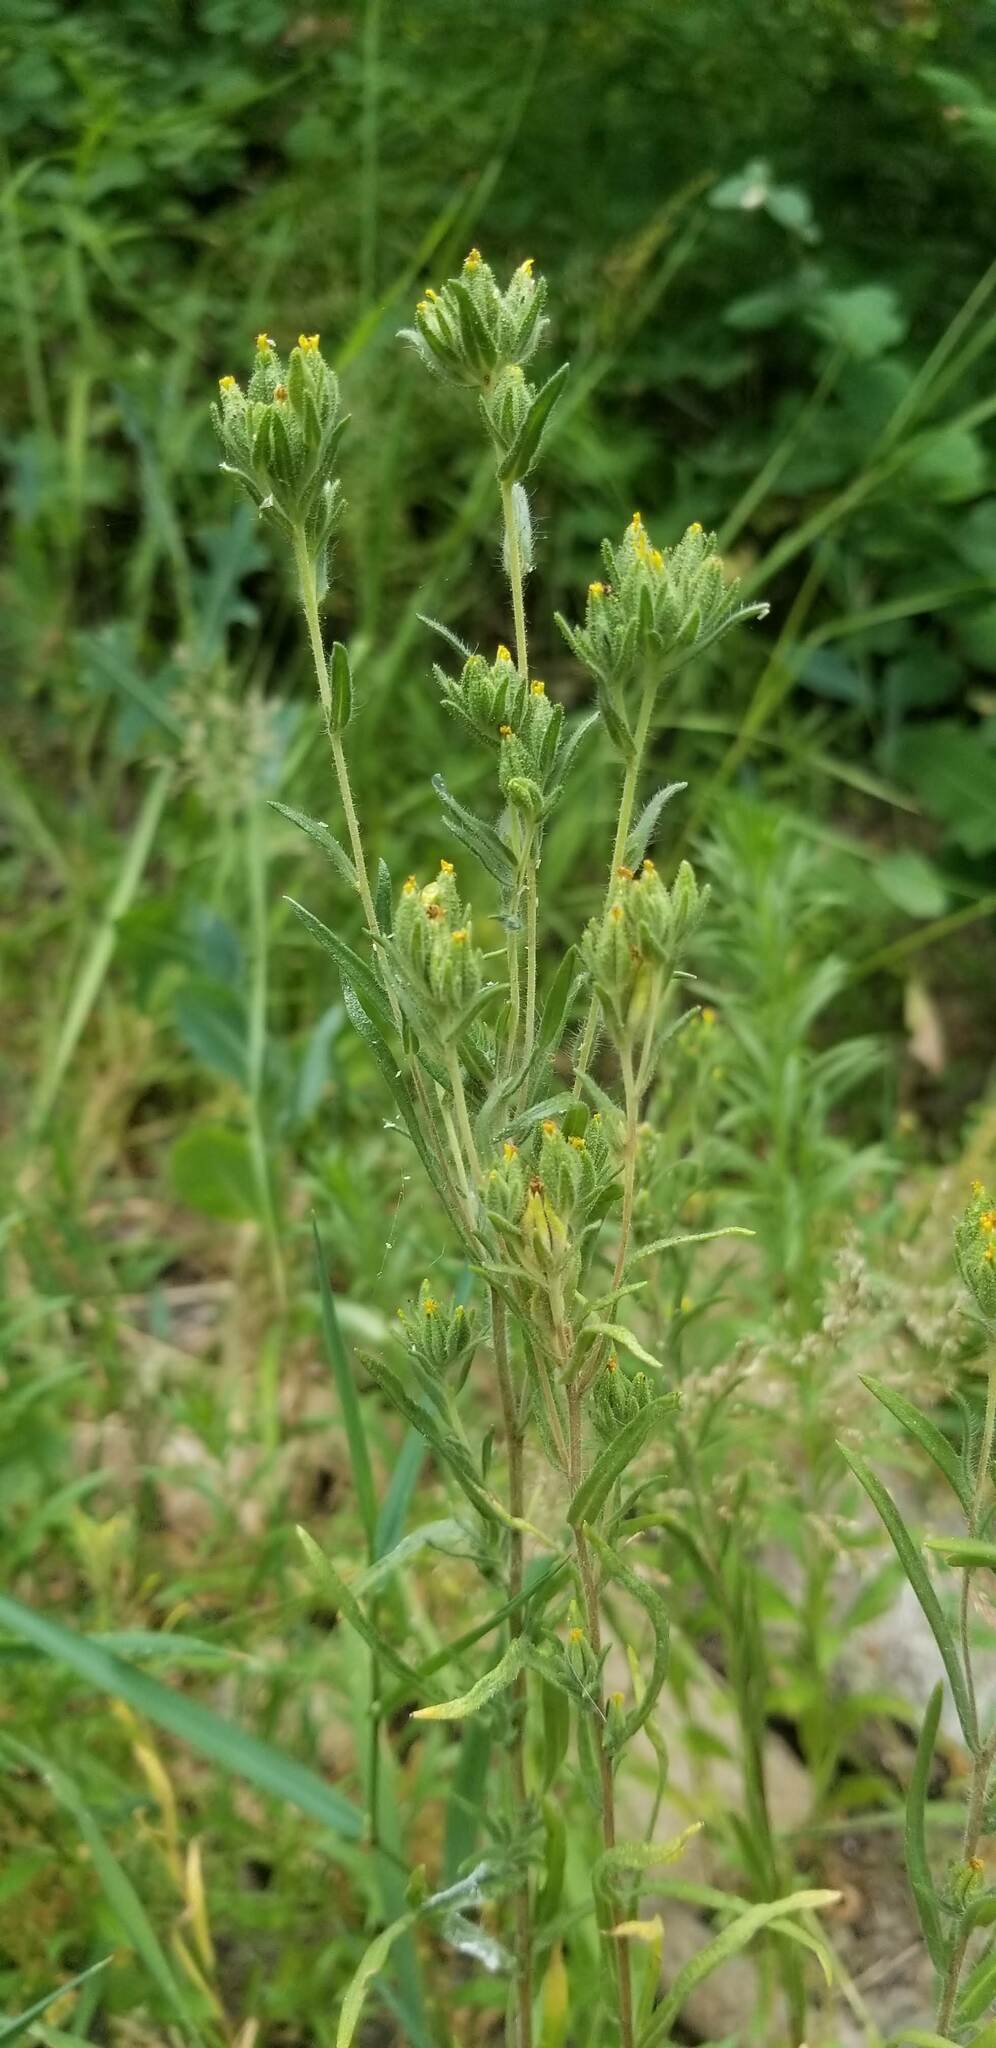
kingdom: Plantae
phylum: Tracheophyta
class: Magnoliopsida
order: Asterales
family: Asteraceae
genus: Madia
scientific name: Madia glomerata
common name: Mountain tarweed
